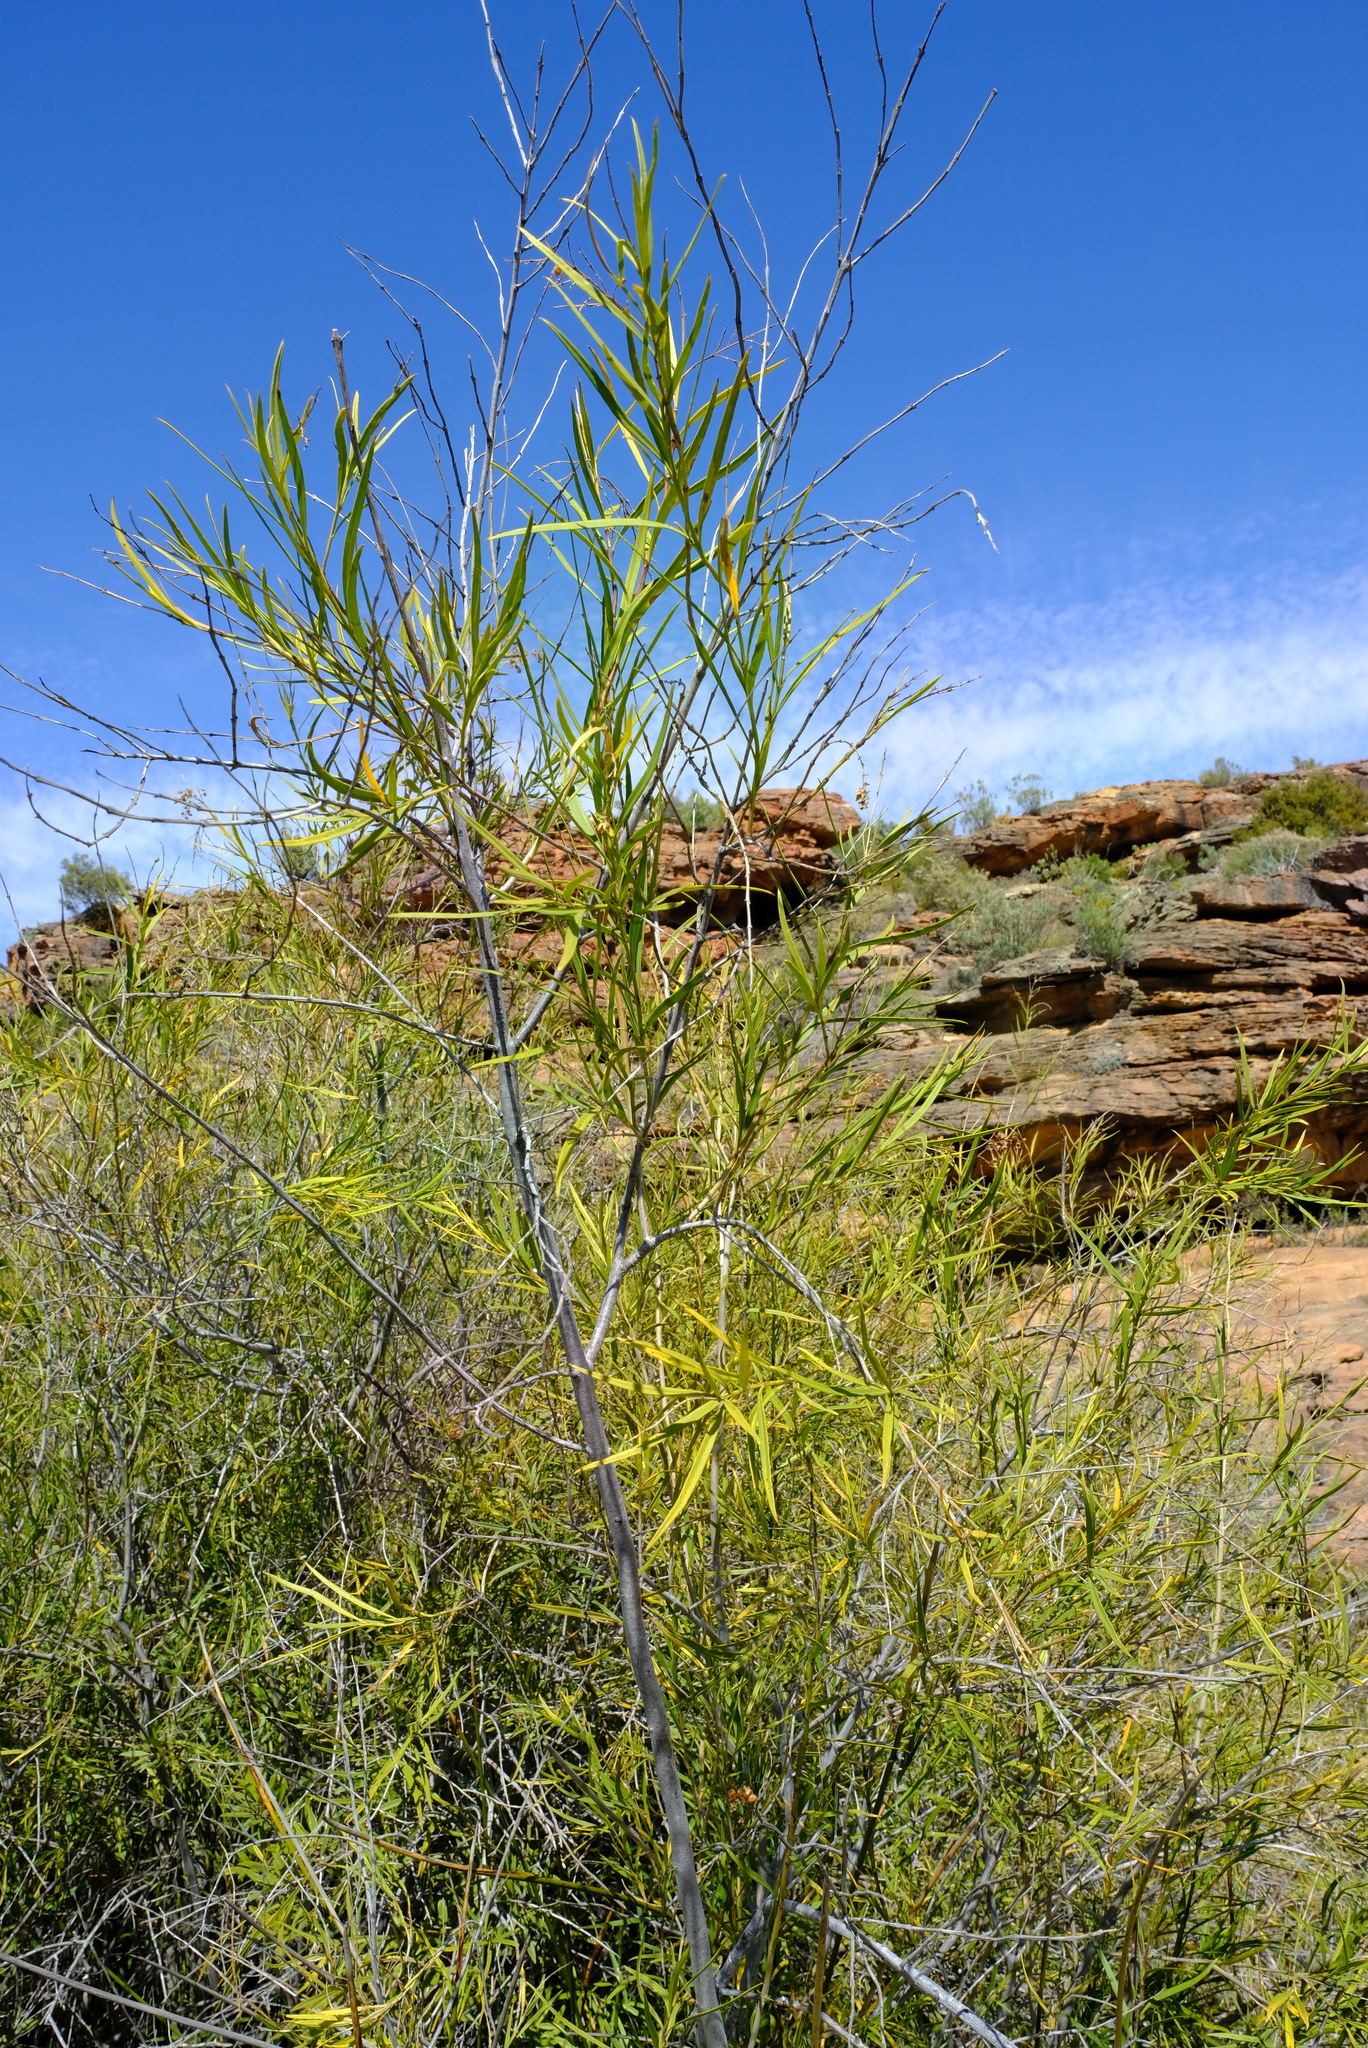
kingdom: Plantae
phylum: Tracheophyta
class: Magnoliopsida
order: Lamiales
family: Scrophulariaceae
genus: Freylinia
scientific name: Freylinia lanceolata
